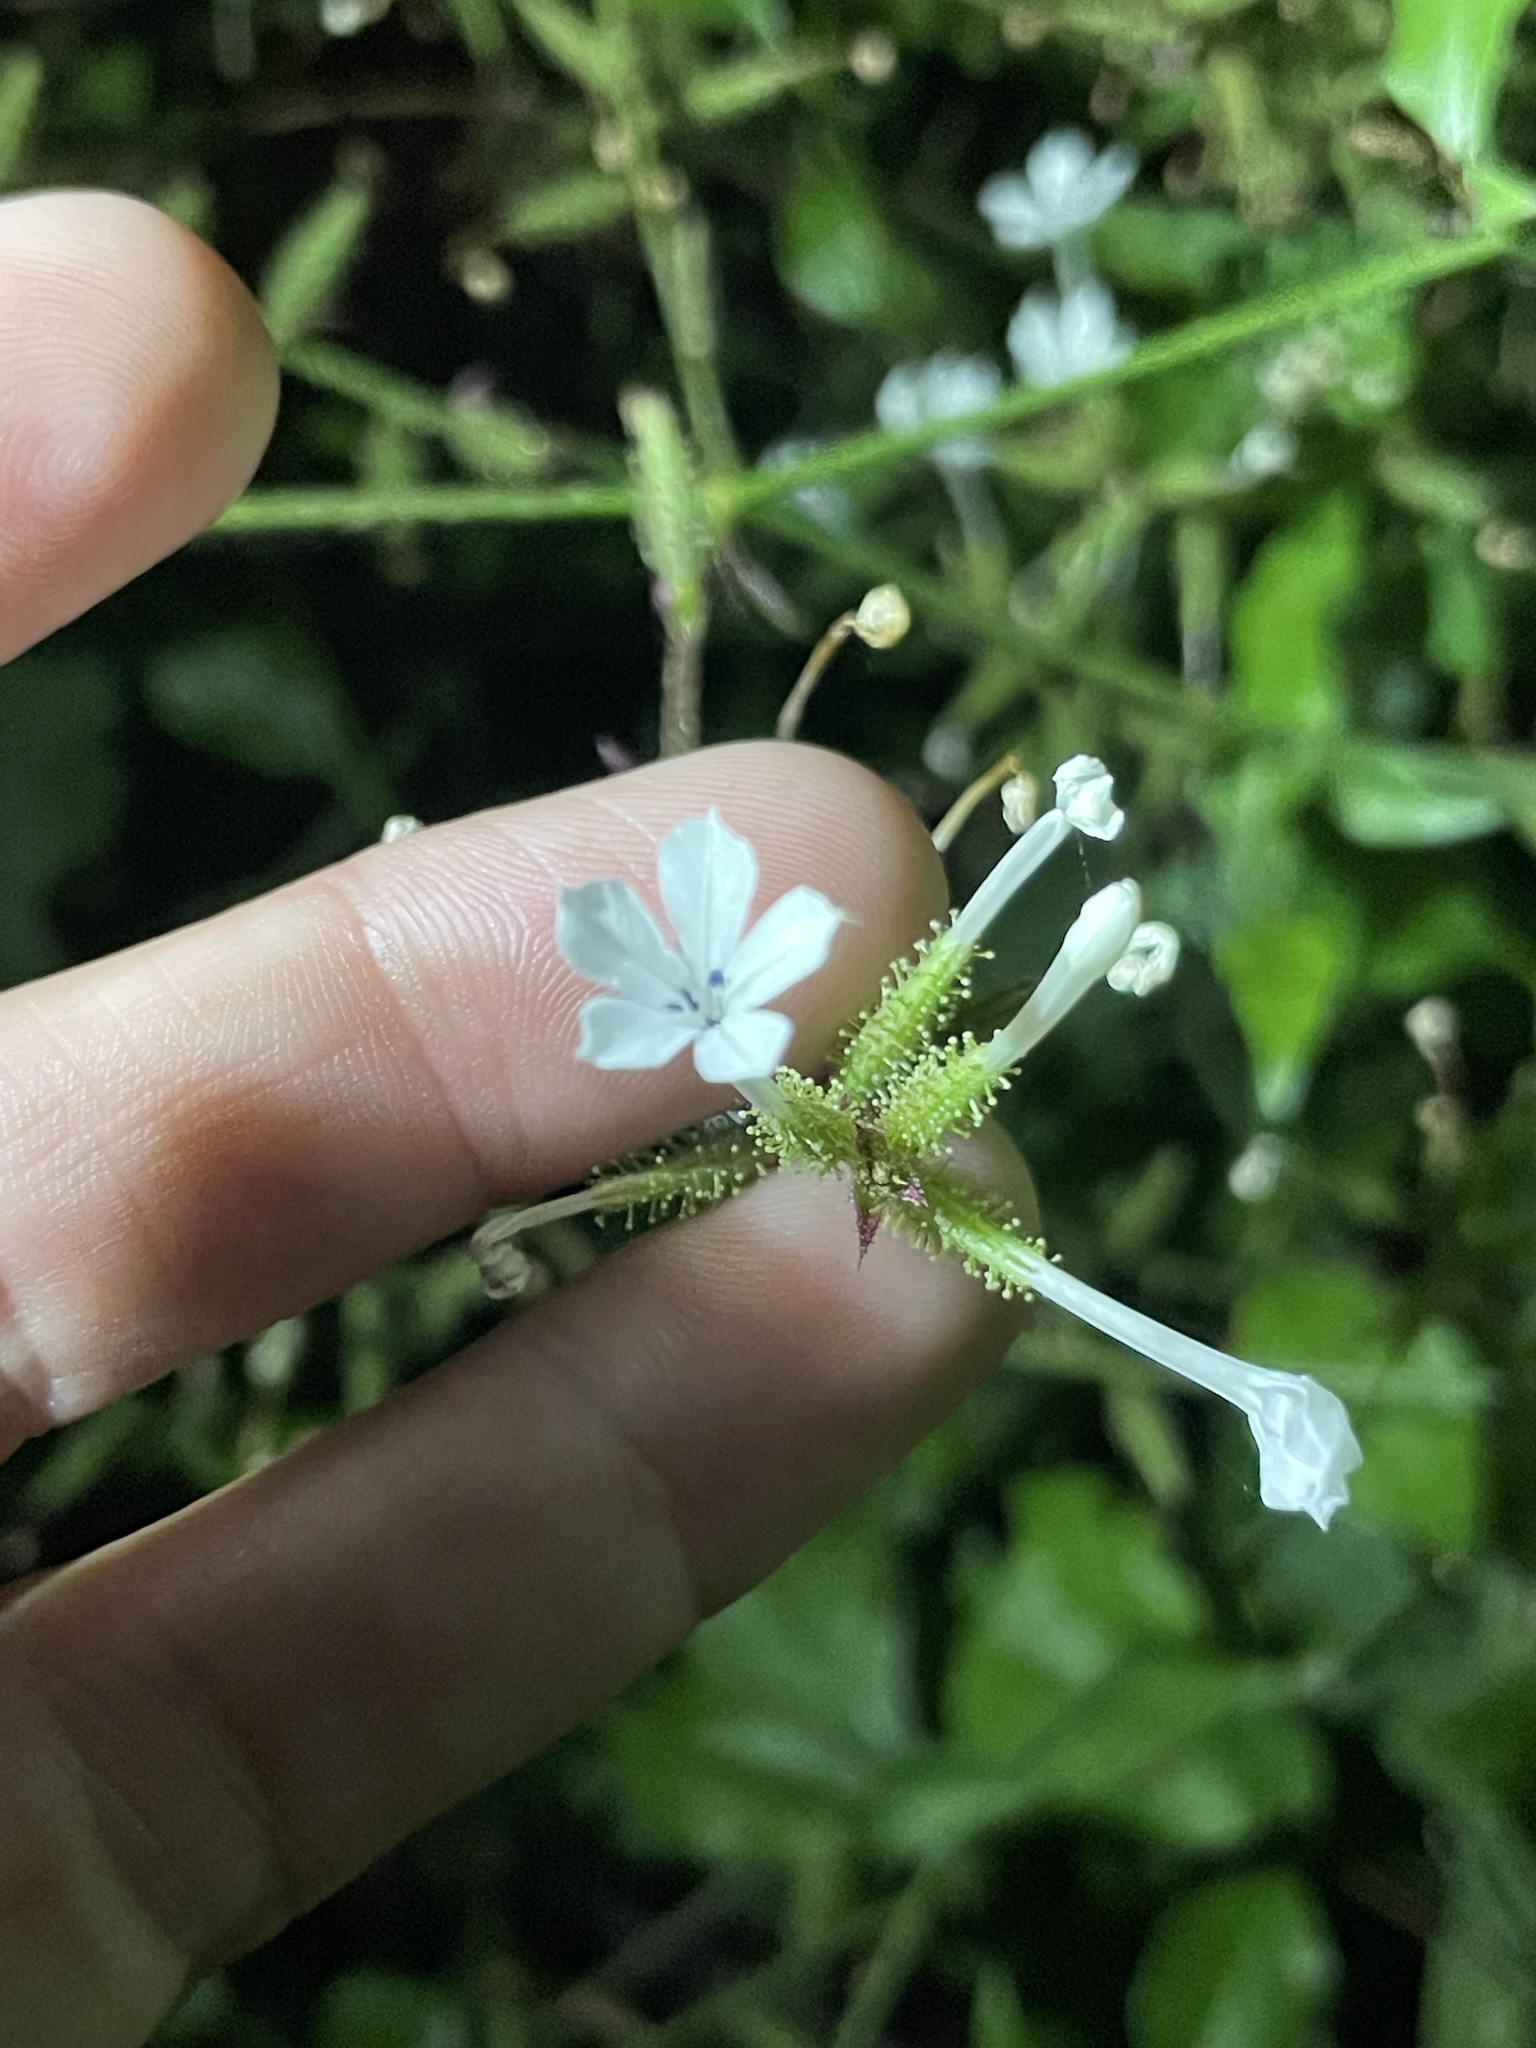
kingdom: Plantae
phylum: Tracheophyta
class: Magnoliopsida
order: Caryophyllales
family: Plumbaginaceae
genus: Plumbago
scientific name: Plumbago zeylanica
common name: Doctorbush
